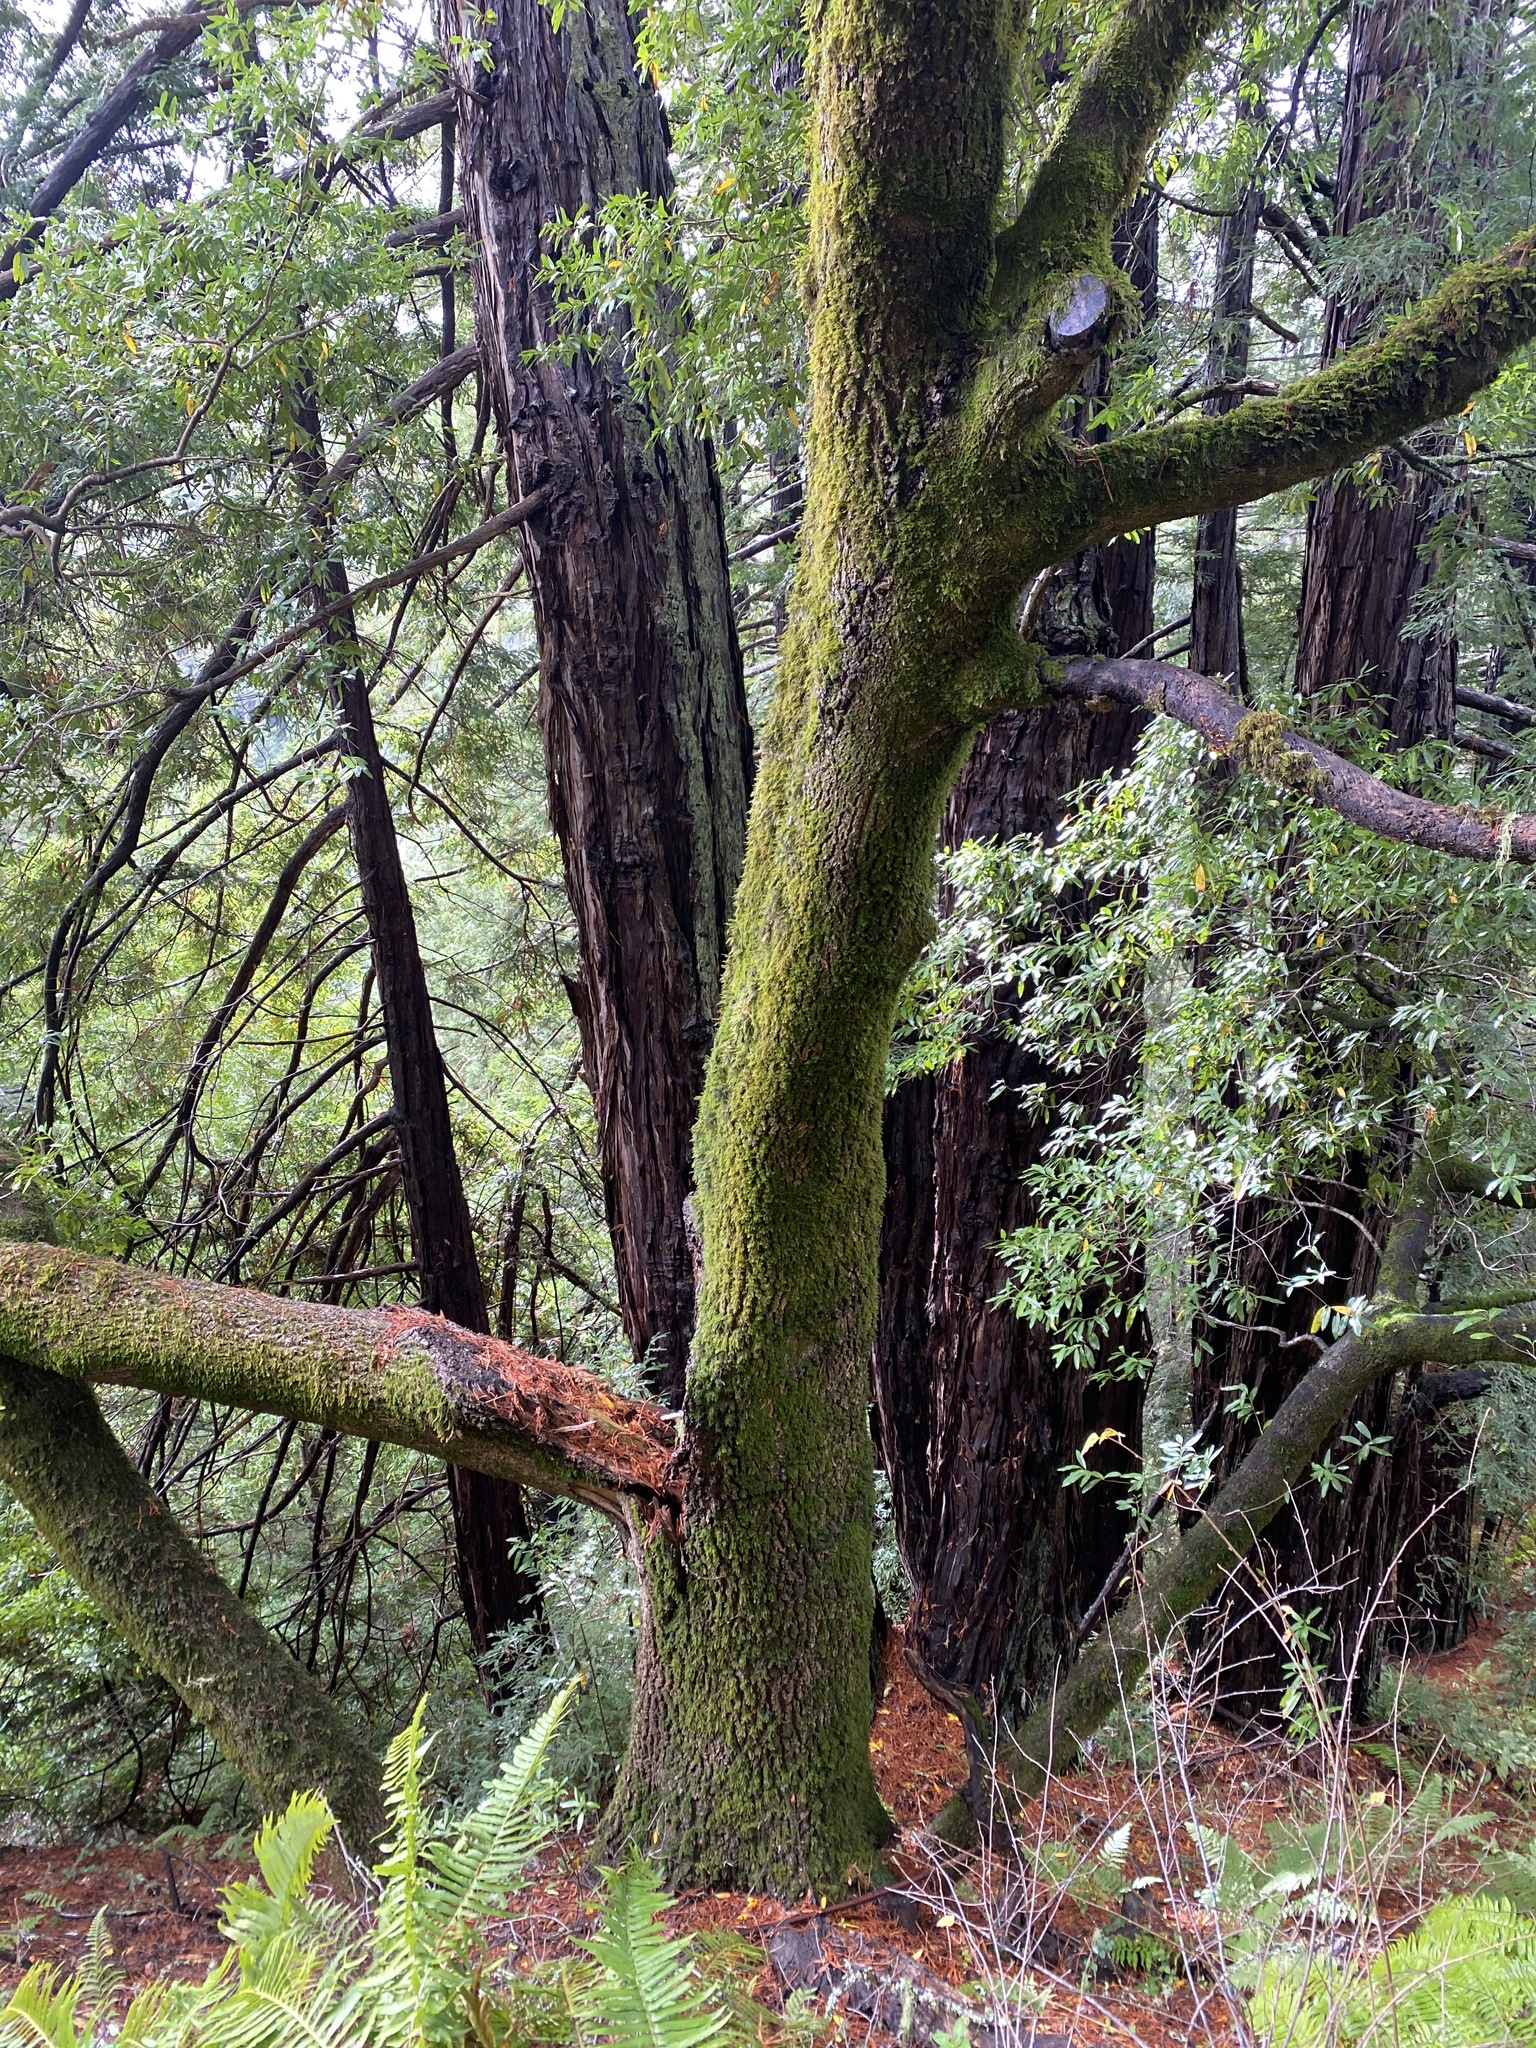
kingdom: Plantae
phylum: Tracheophyta
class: Magnoliopsida
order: Laurales
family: Lauraceae
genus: Umbellularia
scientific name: Umbellularia californica
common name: California bay
